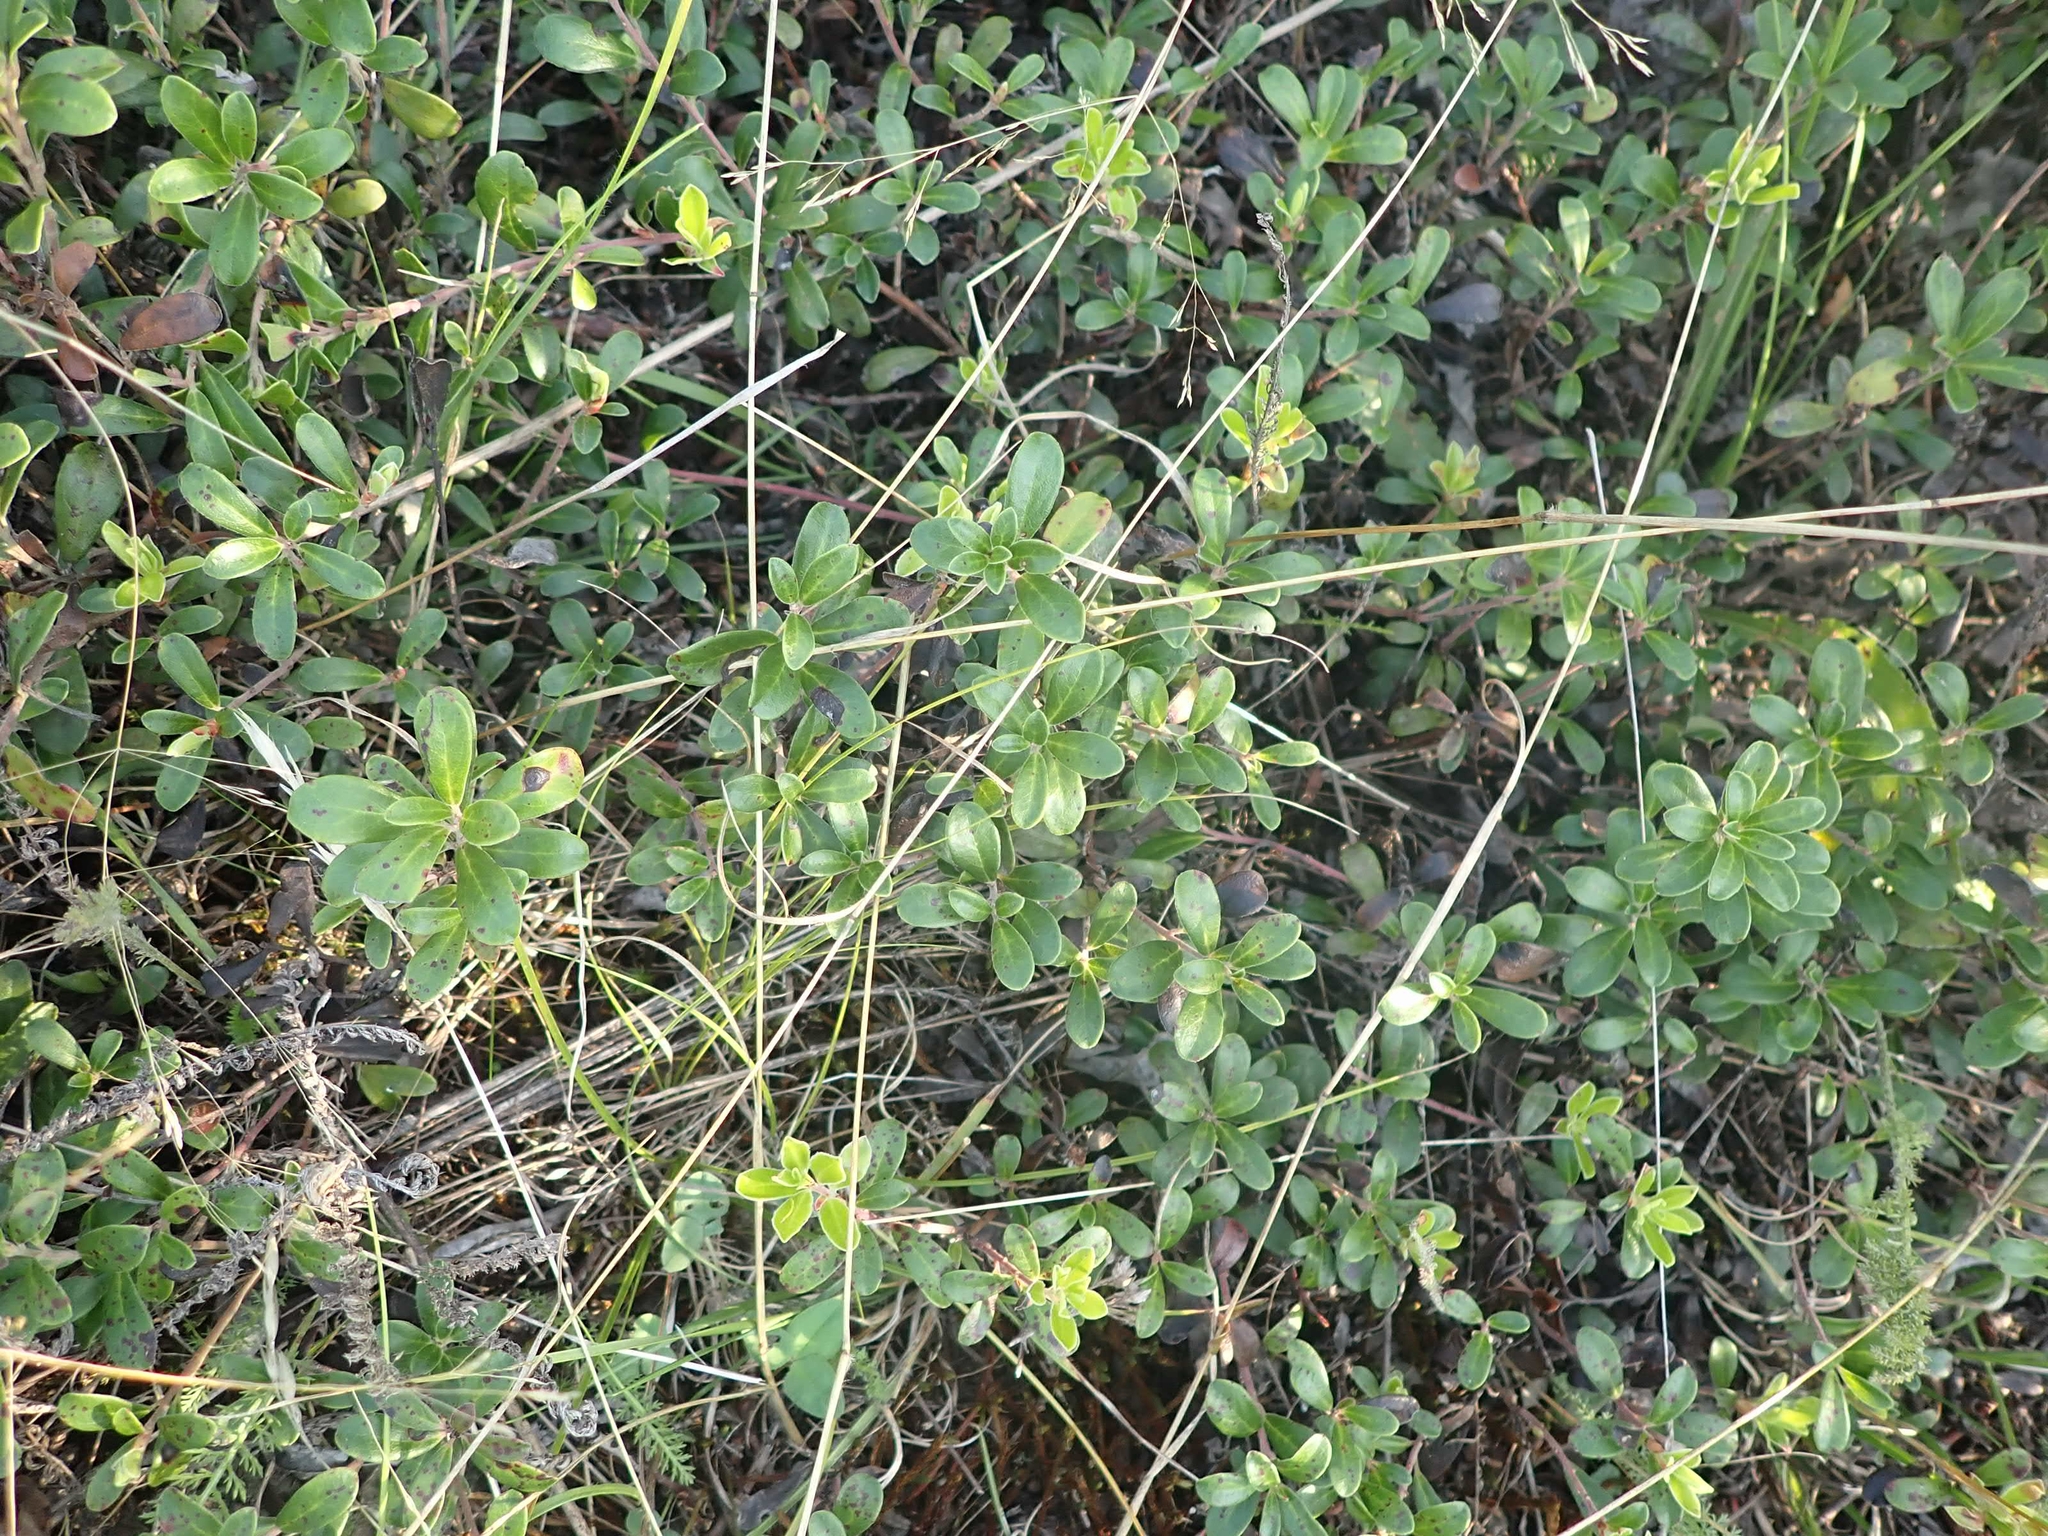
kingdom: Plantae
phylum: Tracheophyta
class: Magnoliopsida
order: Ericales
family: Ericaceae
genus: Arctostaphylos
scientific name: Arctostaphylos uva-ursi
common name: Bearberry
